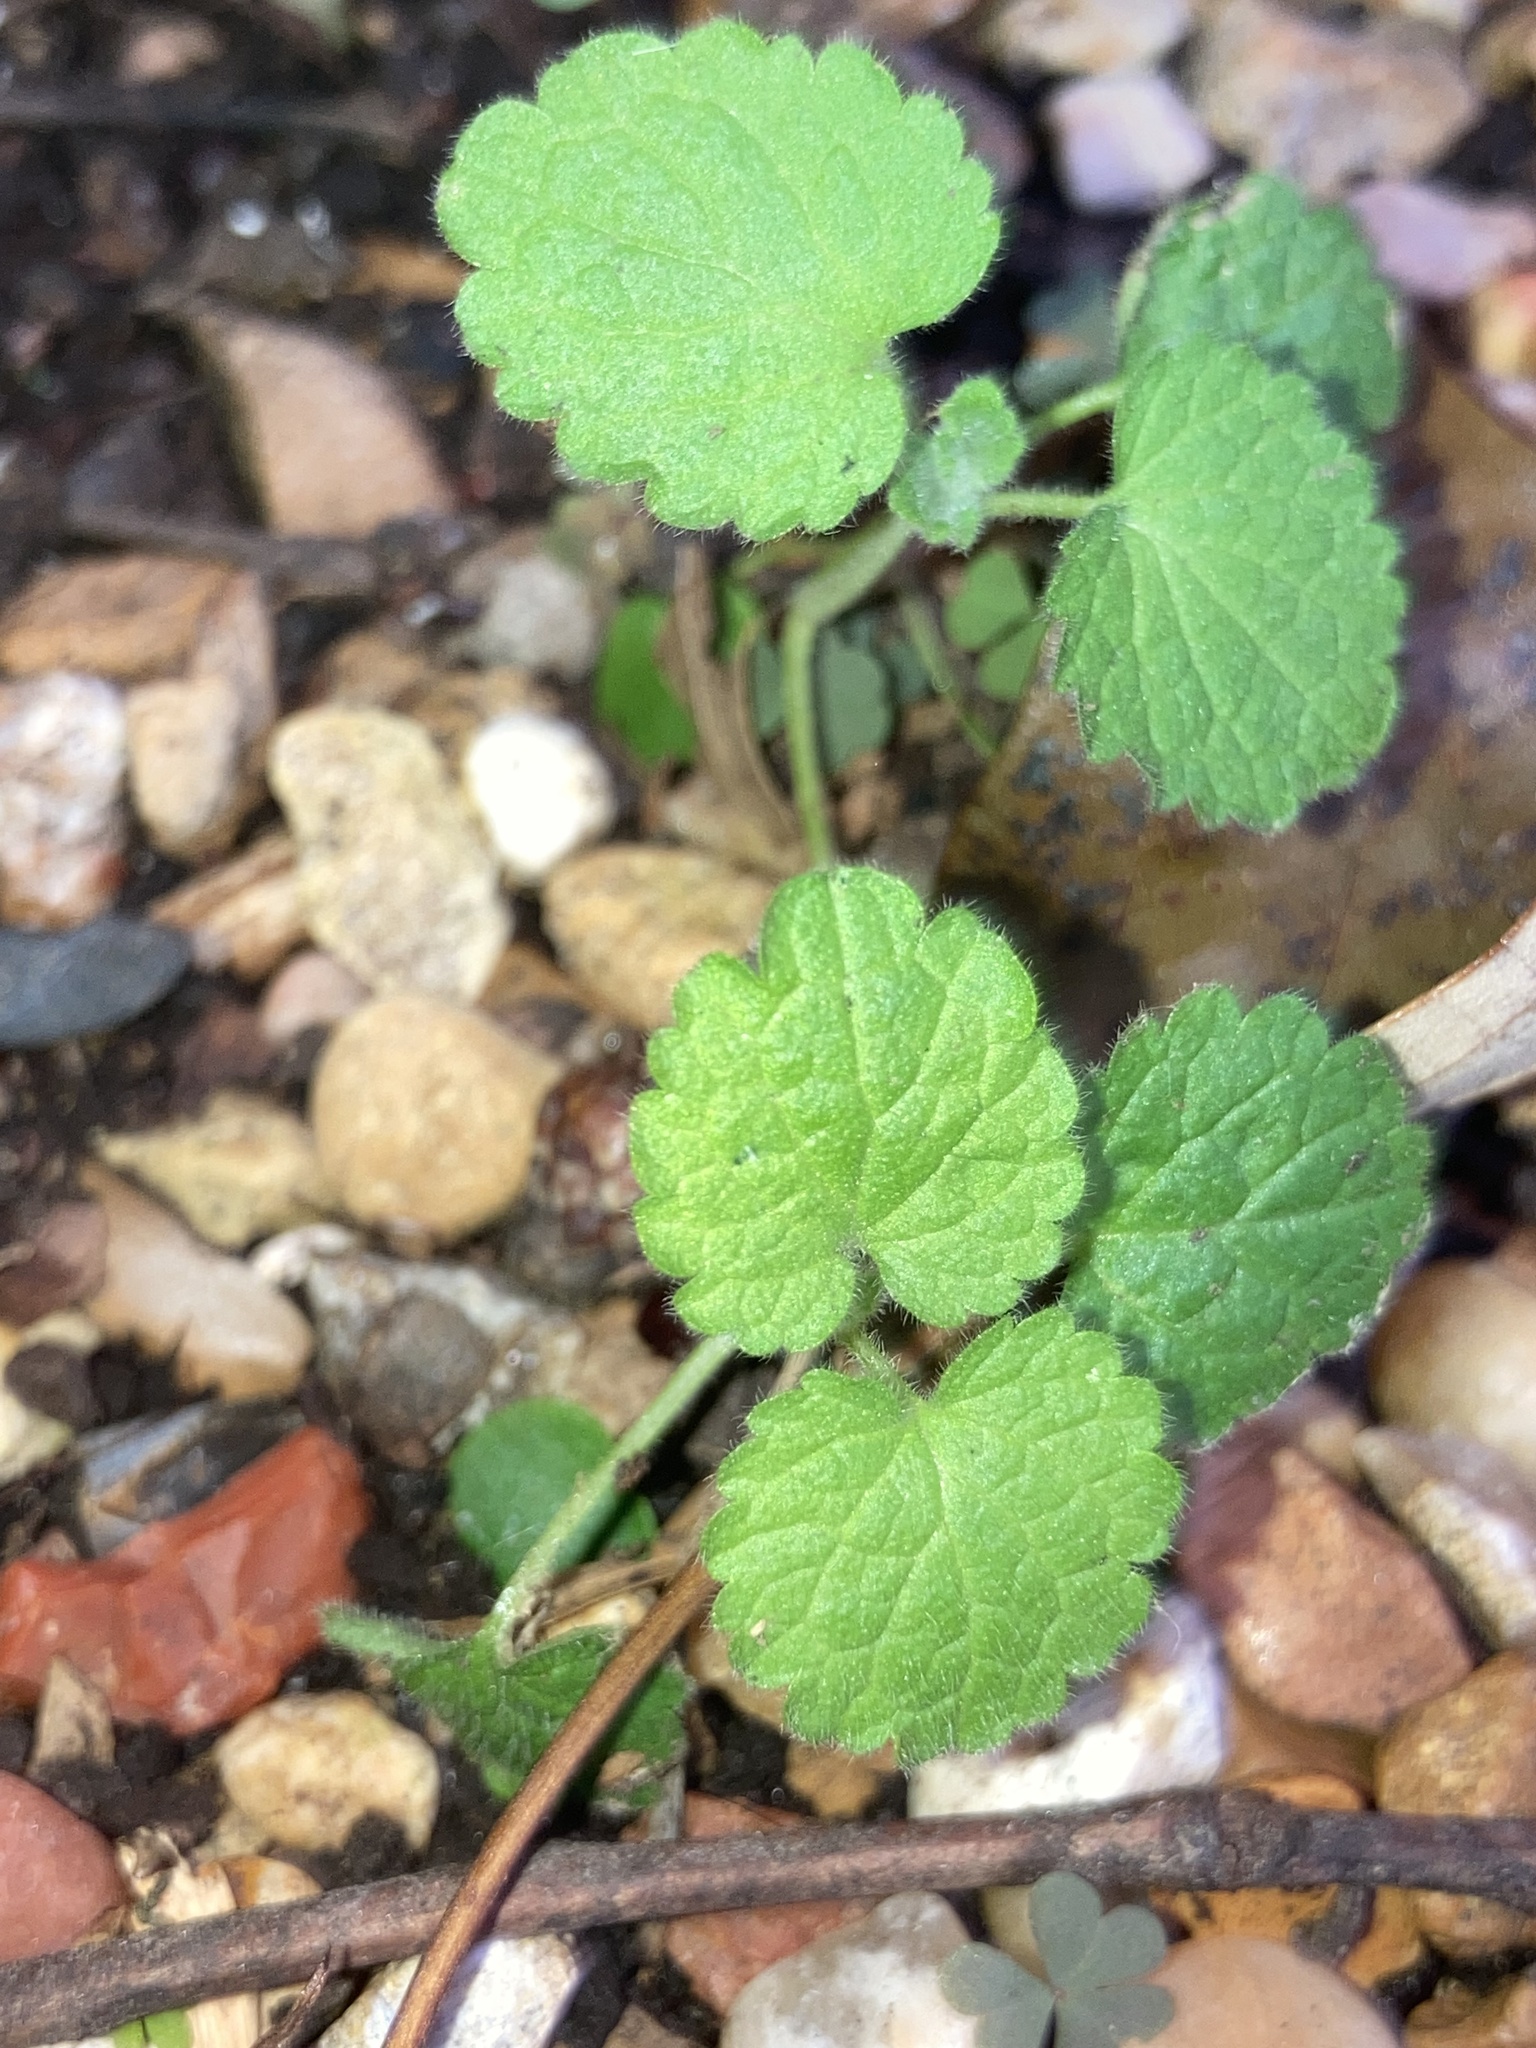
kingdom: Plantae
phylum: Tracheophyta
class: Magnoliopsida
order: Lamiales
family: Lamiaceae
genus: Lamium
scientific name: Lamium amplexicaule
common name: Henbit dead-nettle
